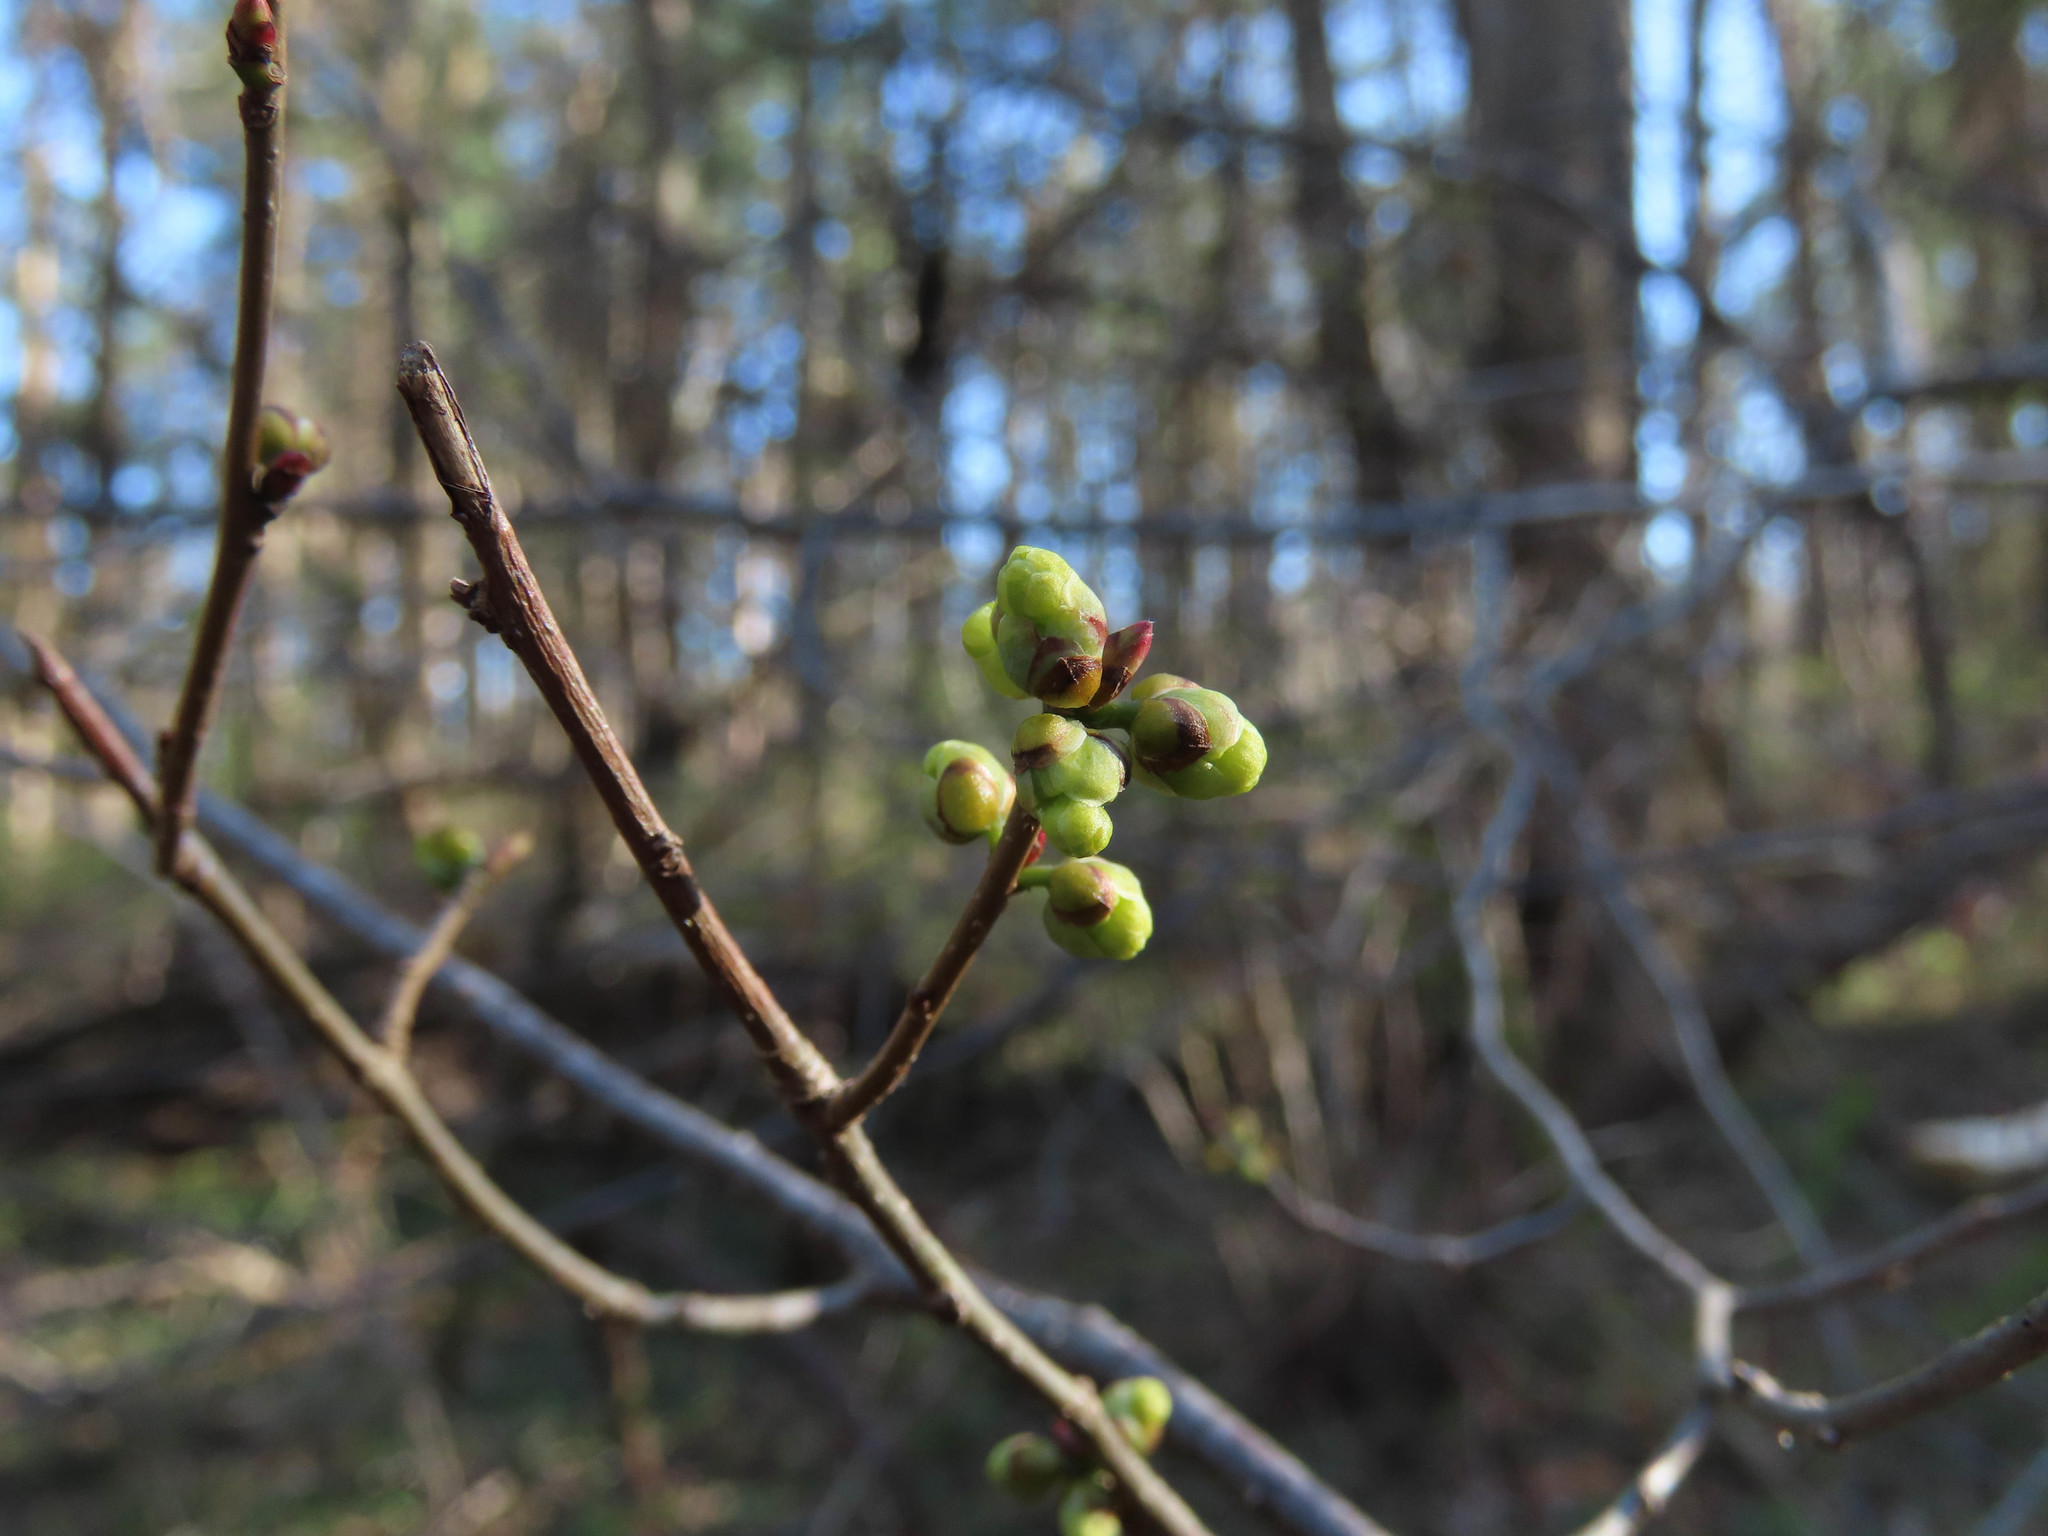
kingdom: Plantae
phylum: Tracheophyta
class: Magnoliopsida
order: Laurales
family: Lauraceae
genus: Lindera
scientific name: Lindera benzoin
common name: Spicebush
